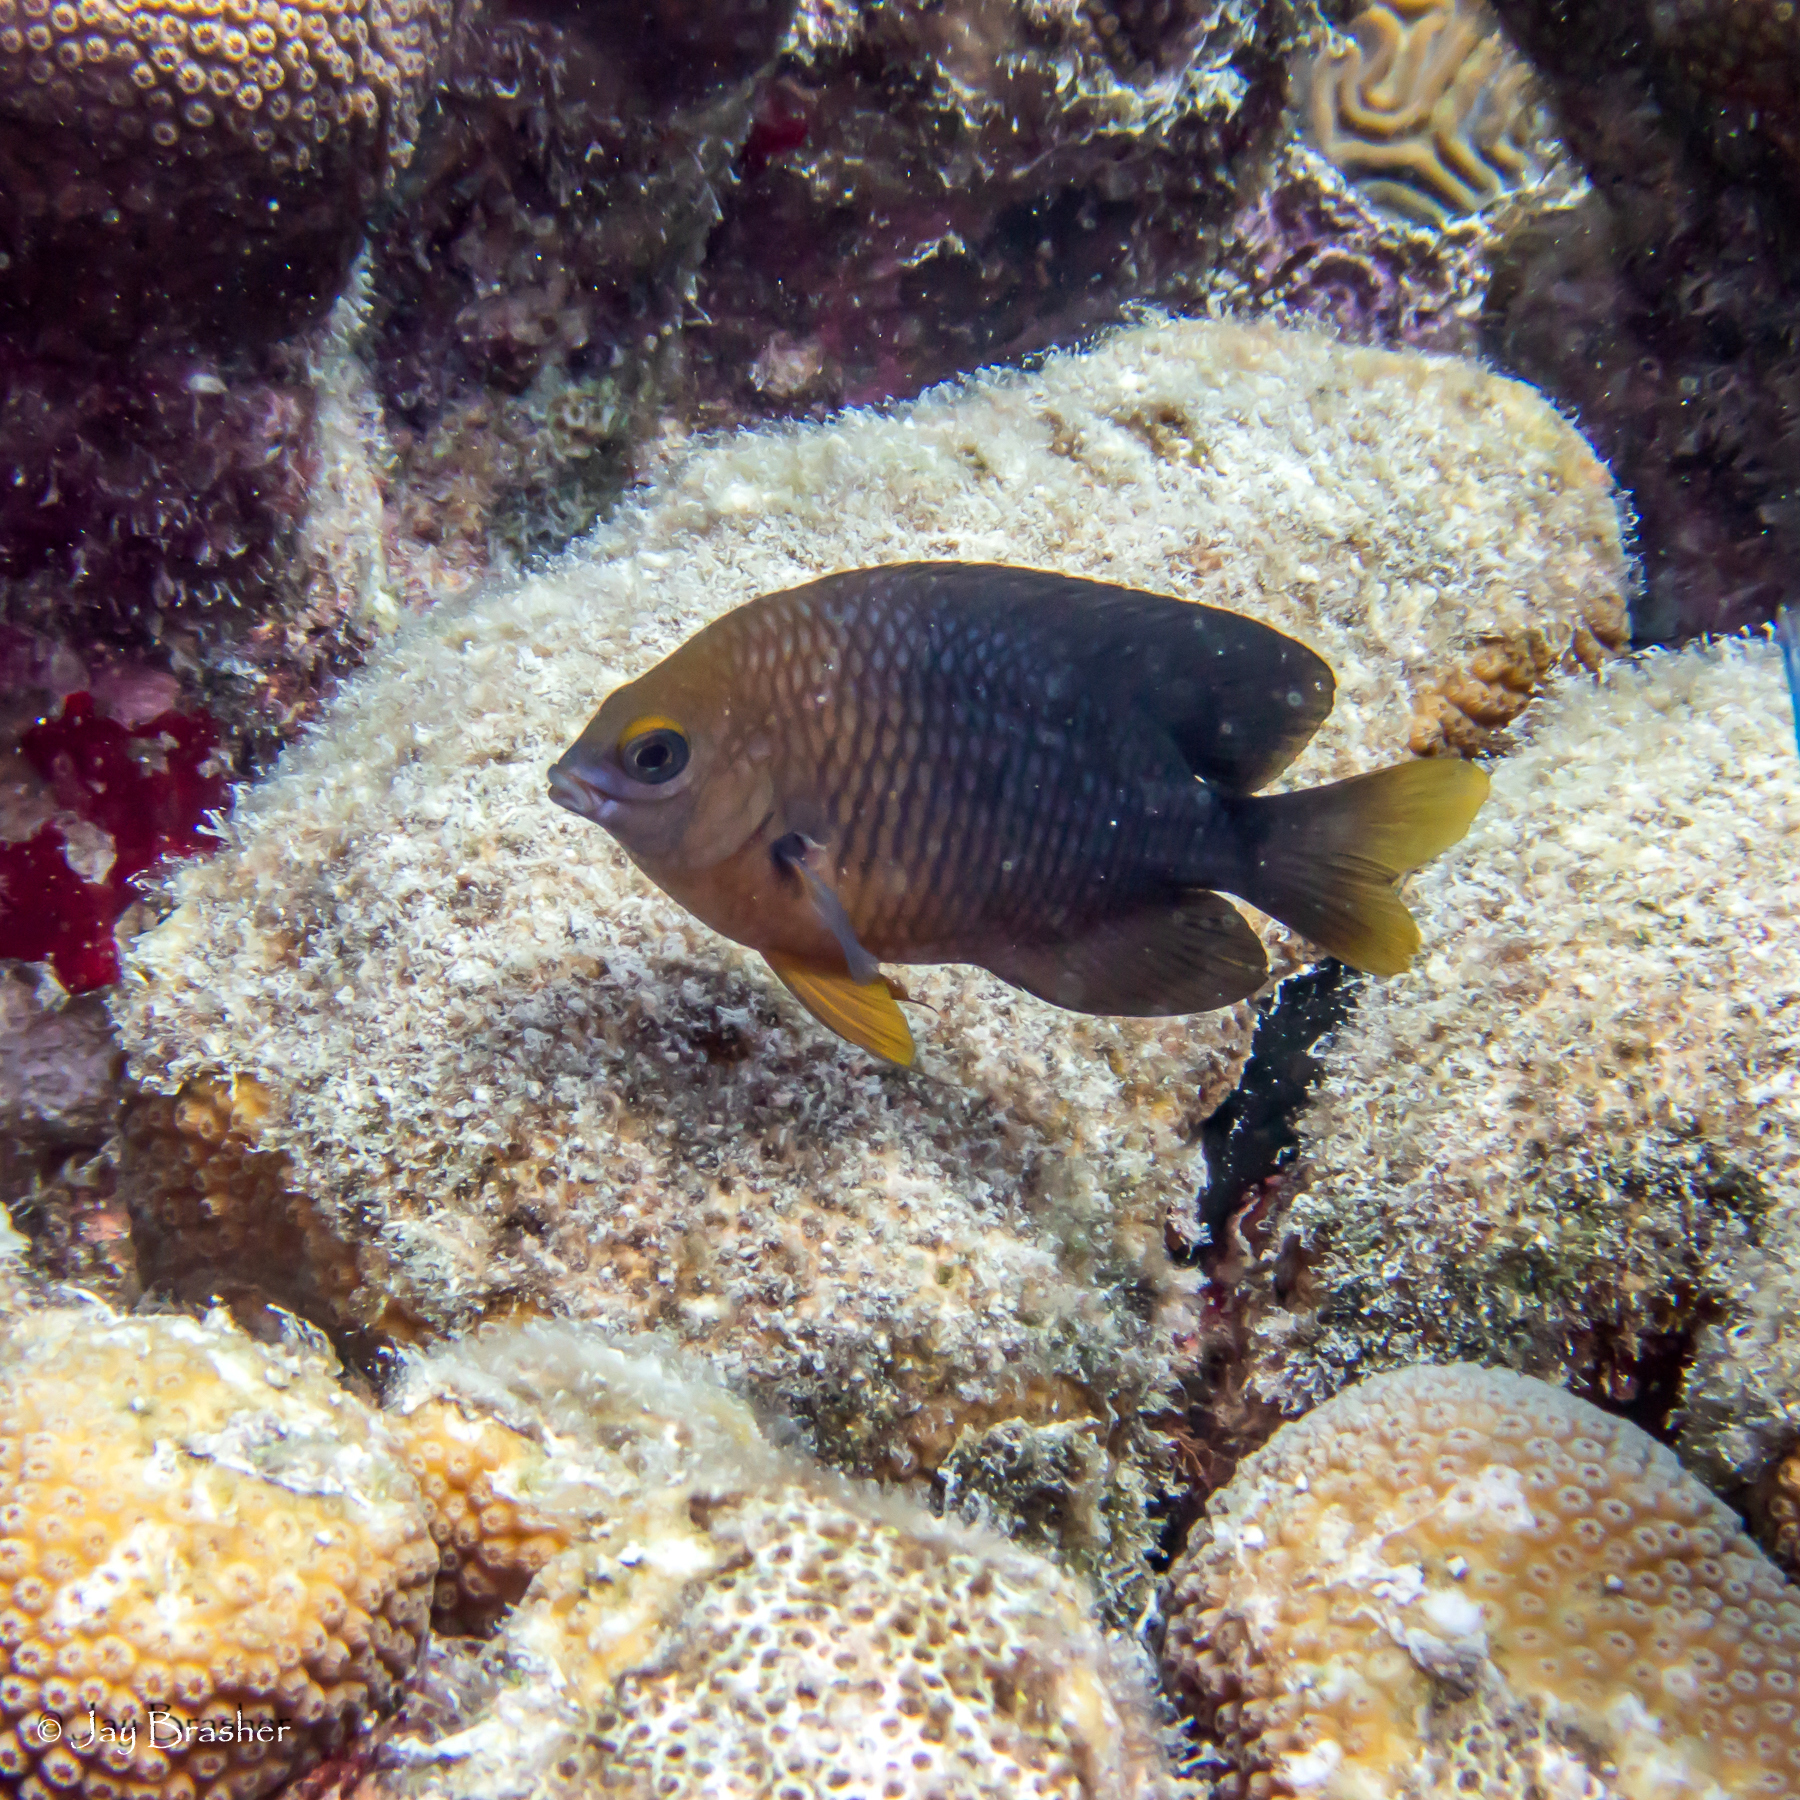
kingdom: Animalia
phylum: Chordata
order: Perciformes
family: Pomacentridae
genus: Stegastes
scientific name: Stegastes planifrons
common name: Threespot damselfish
